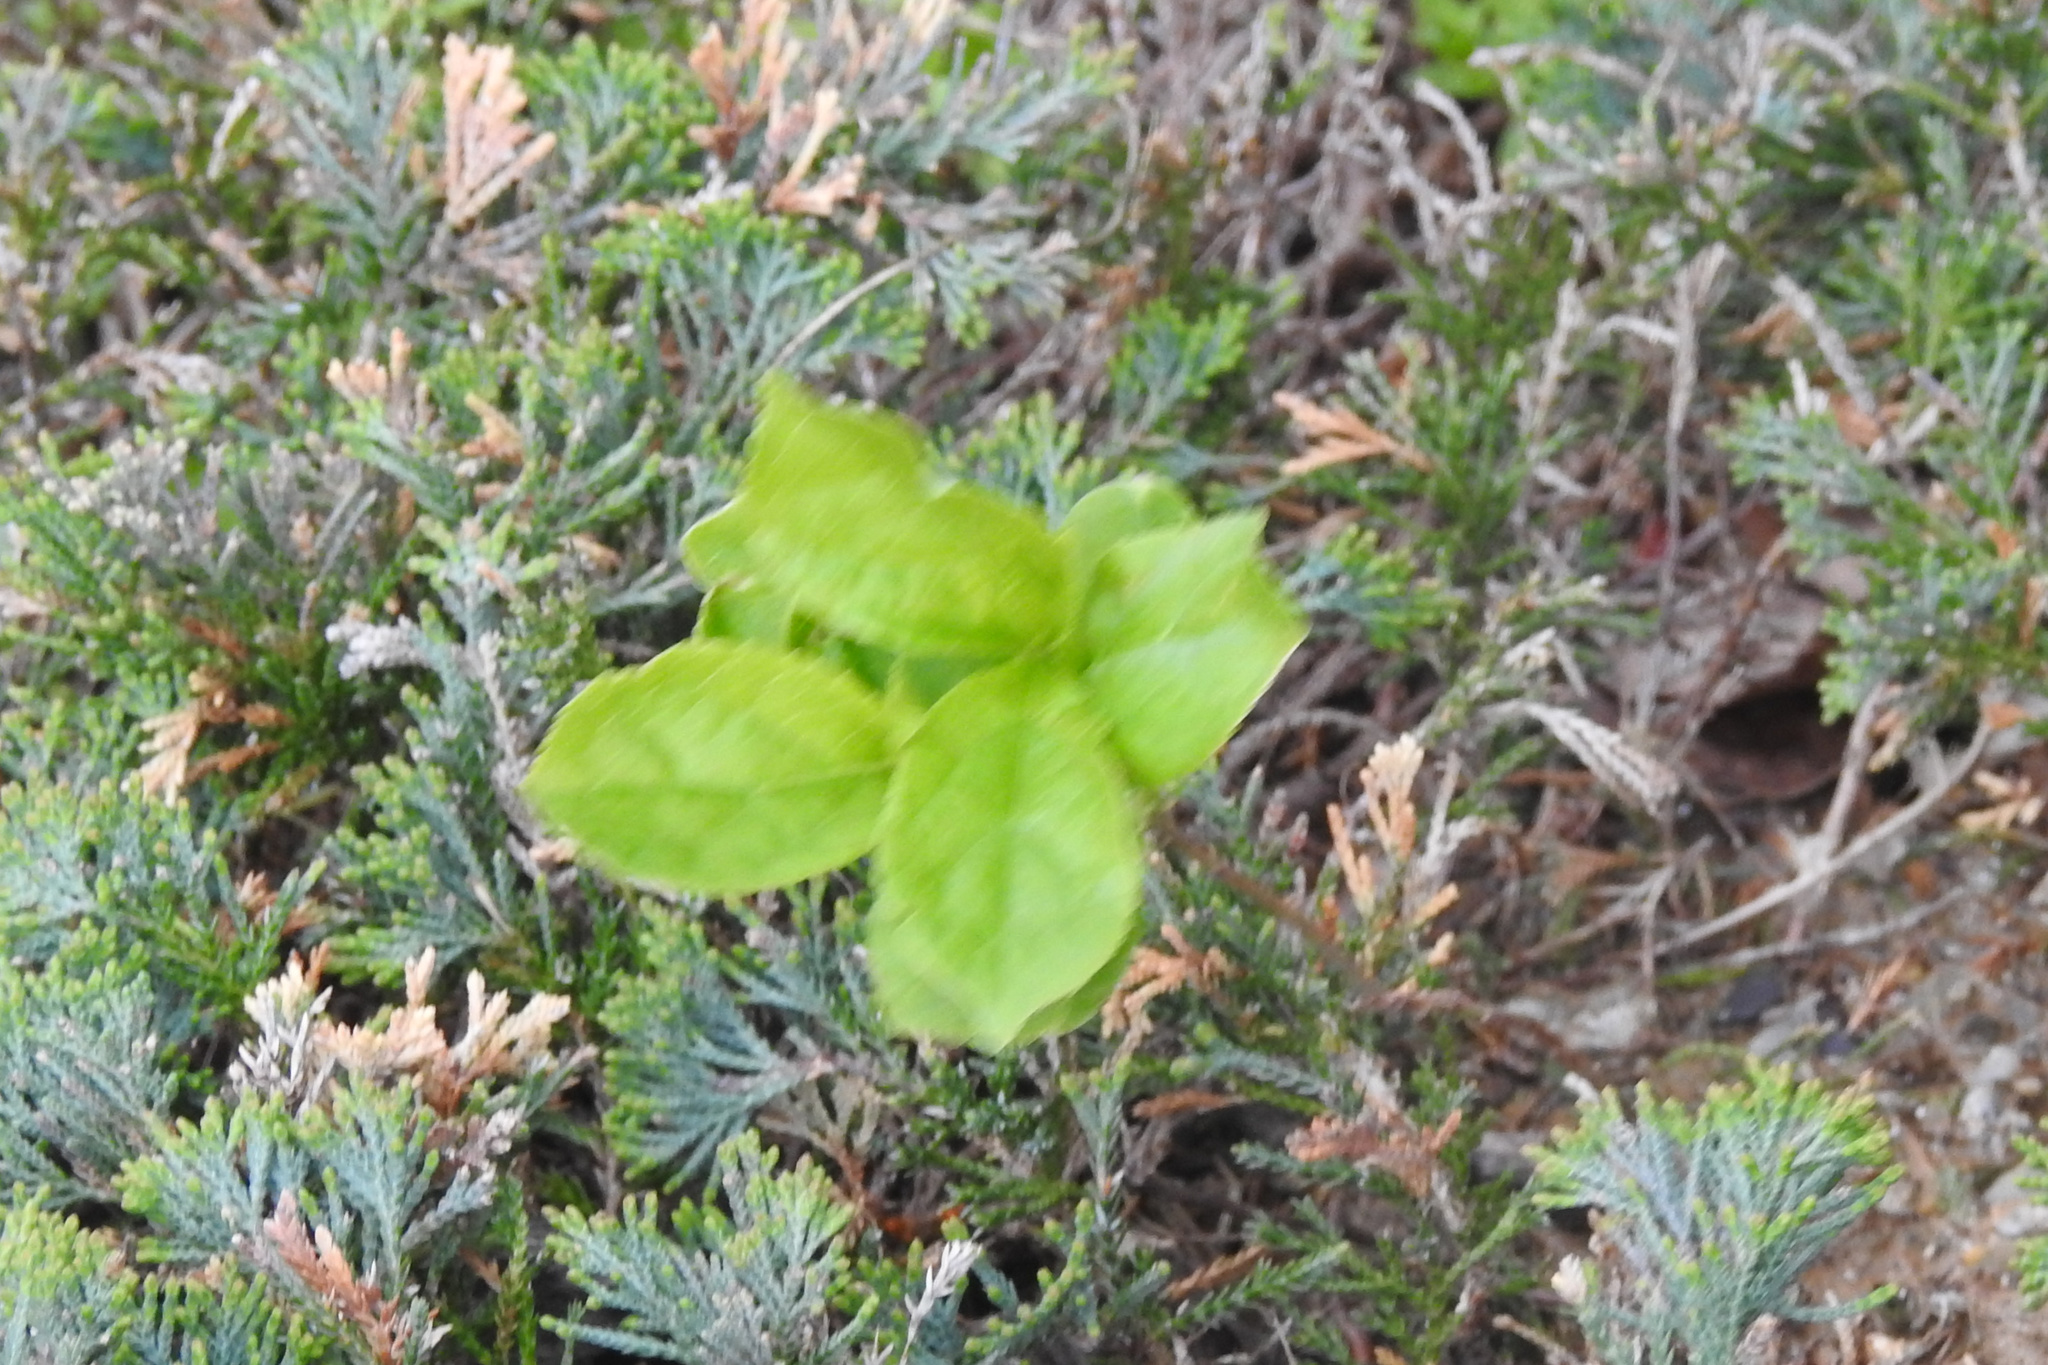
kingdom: Plantae
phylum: Tracheophyta
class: Magnoliopsida
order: Celastrales
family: Celastraceae
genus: Celastrus
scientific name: Celastrus orbiculatus
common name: Oriental bittersweet
